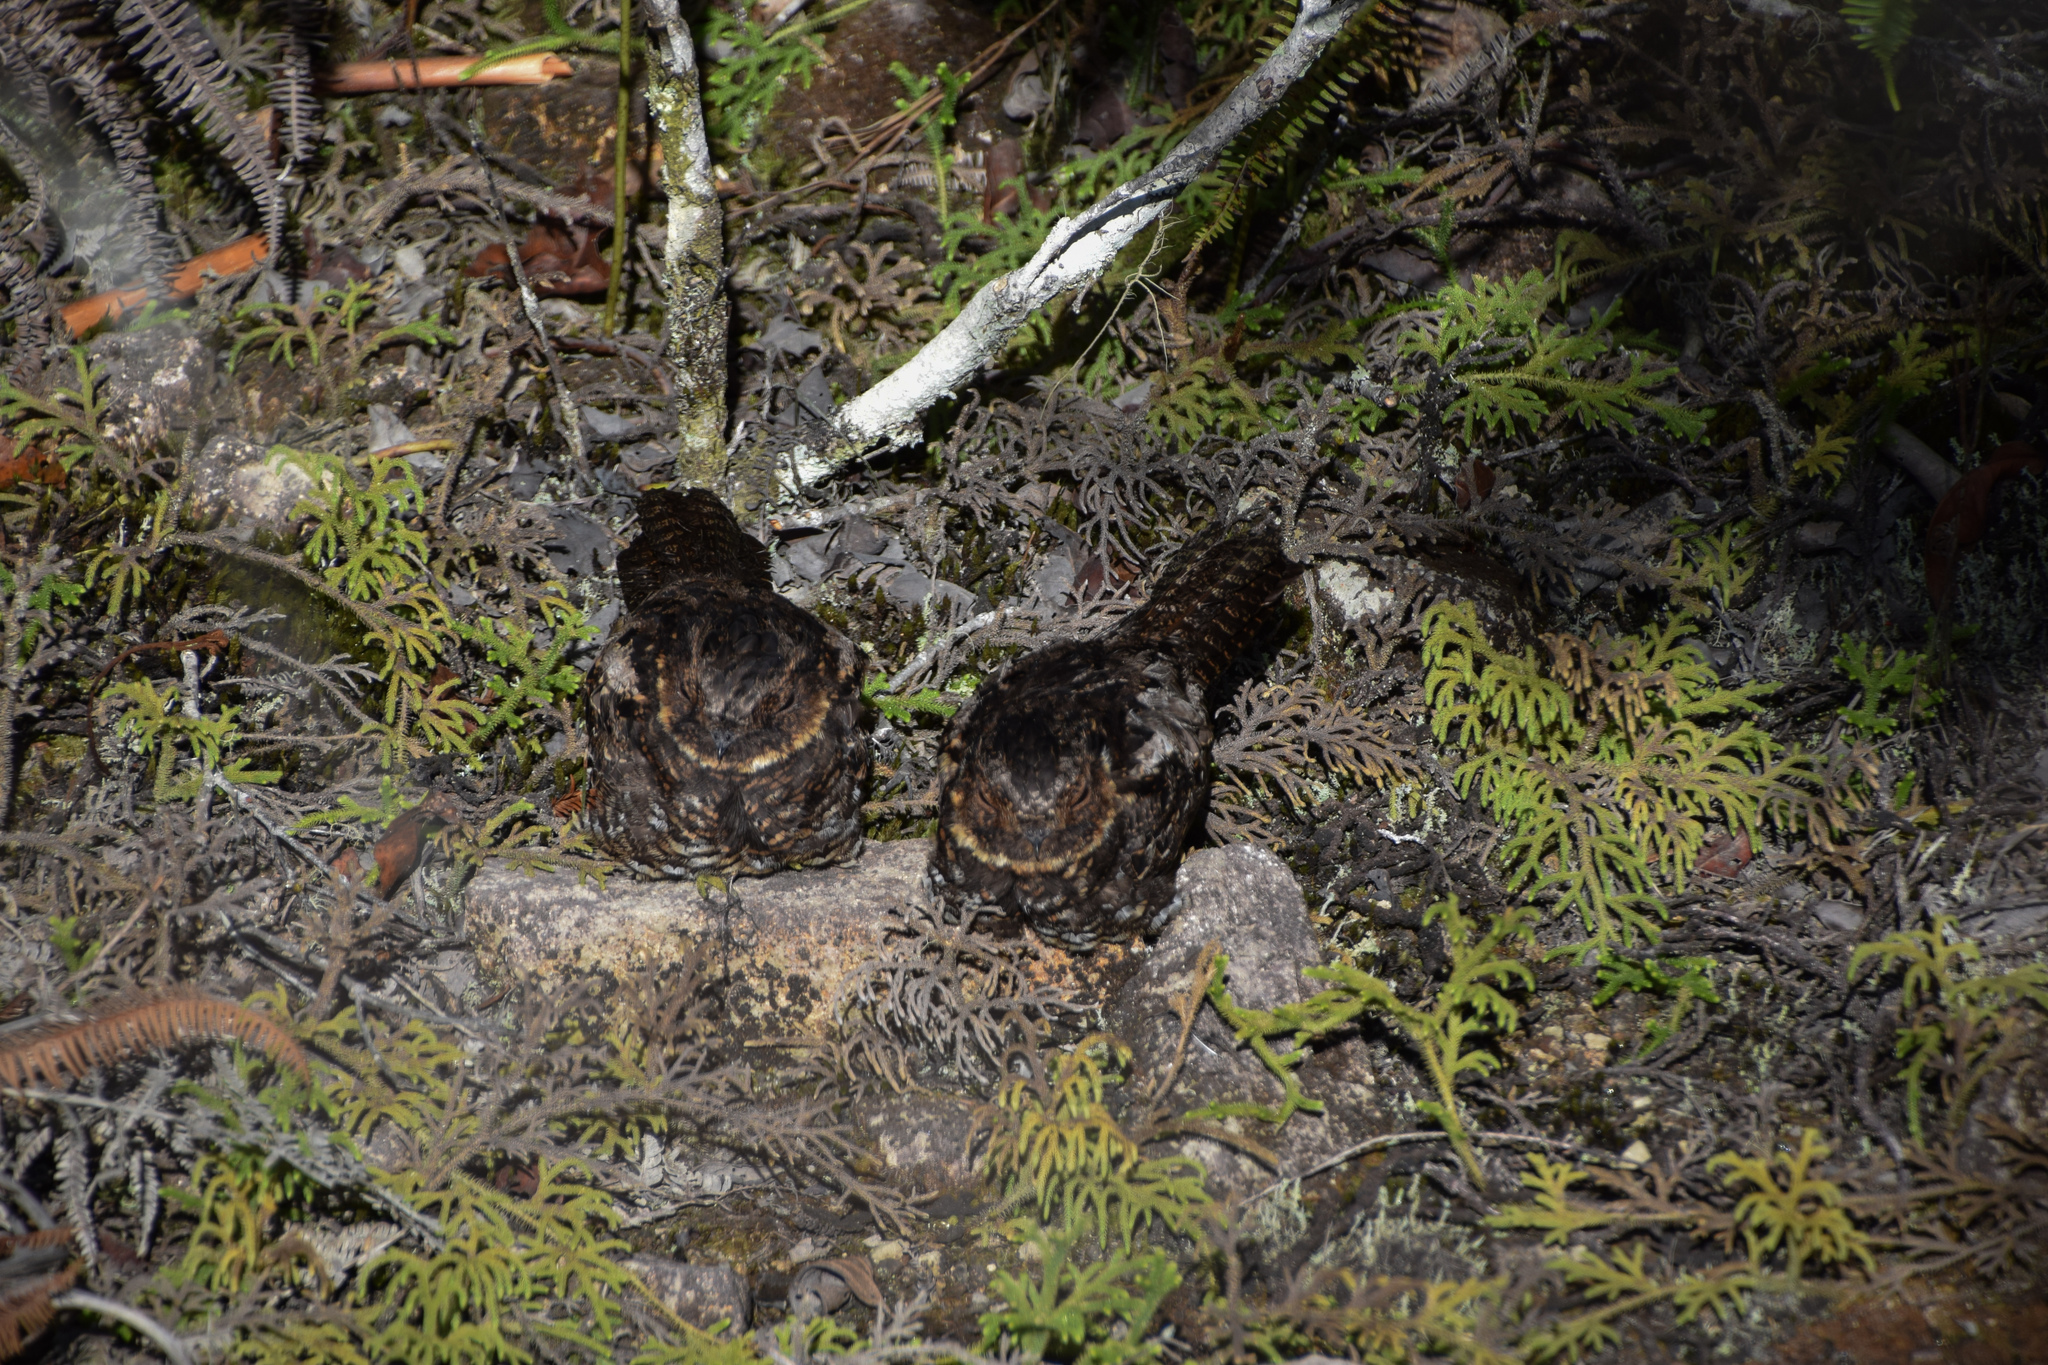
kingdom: Animalia
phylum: Chordata
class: Aves
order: Caprimulgiformes
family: Caprimulgidae
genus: Eurostopodus
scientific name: Eurostopodus diabolicus
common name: Satanic nightjar
